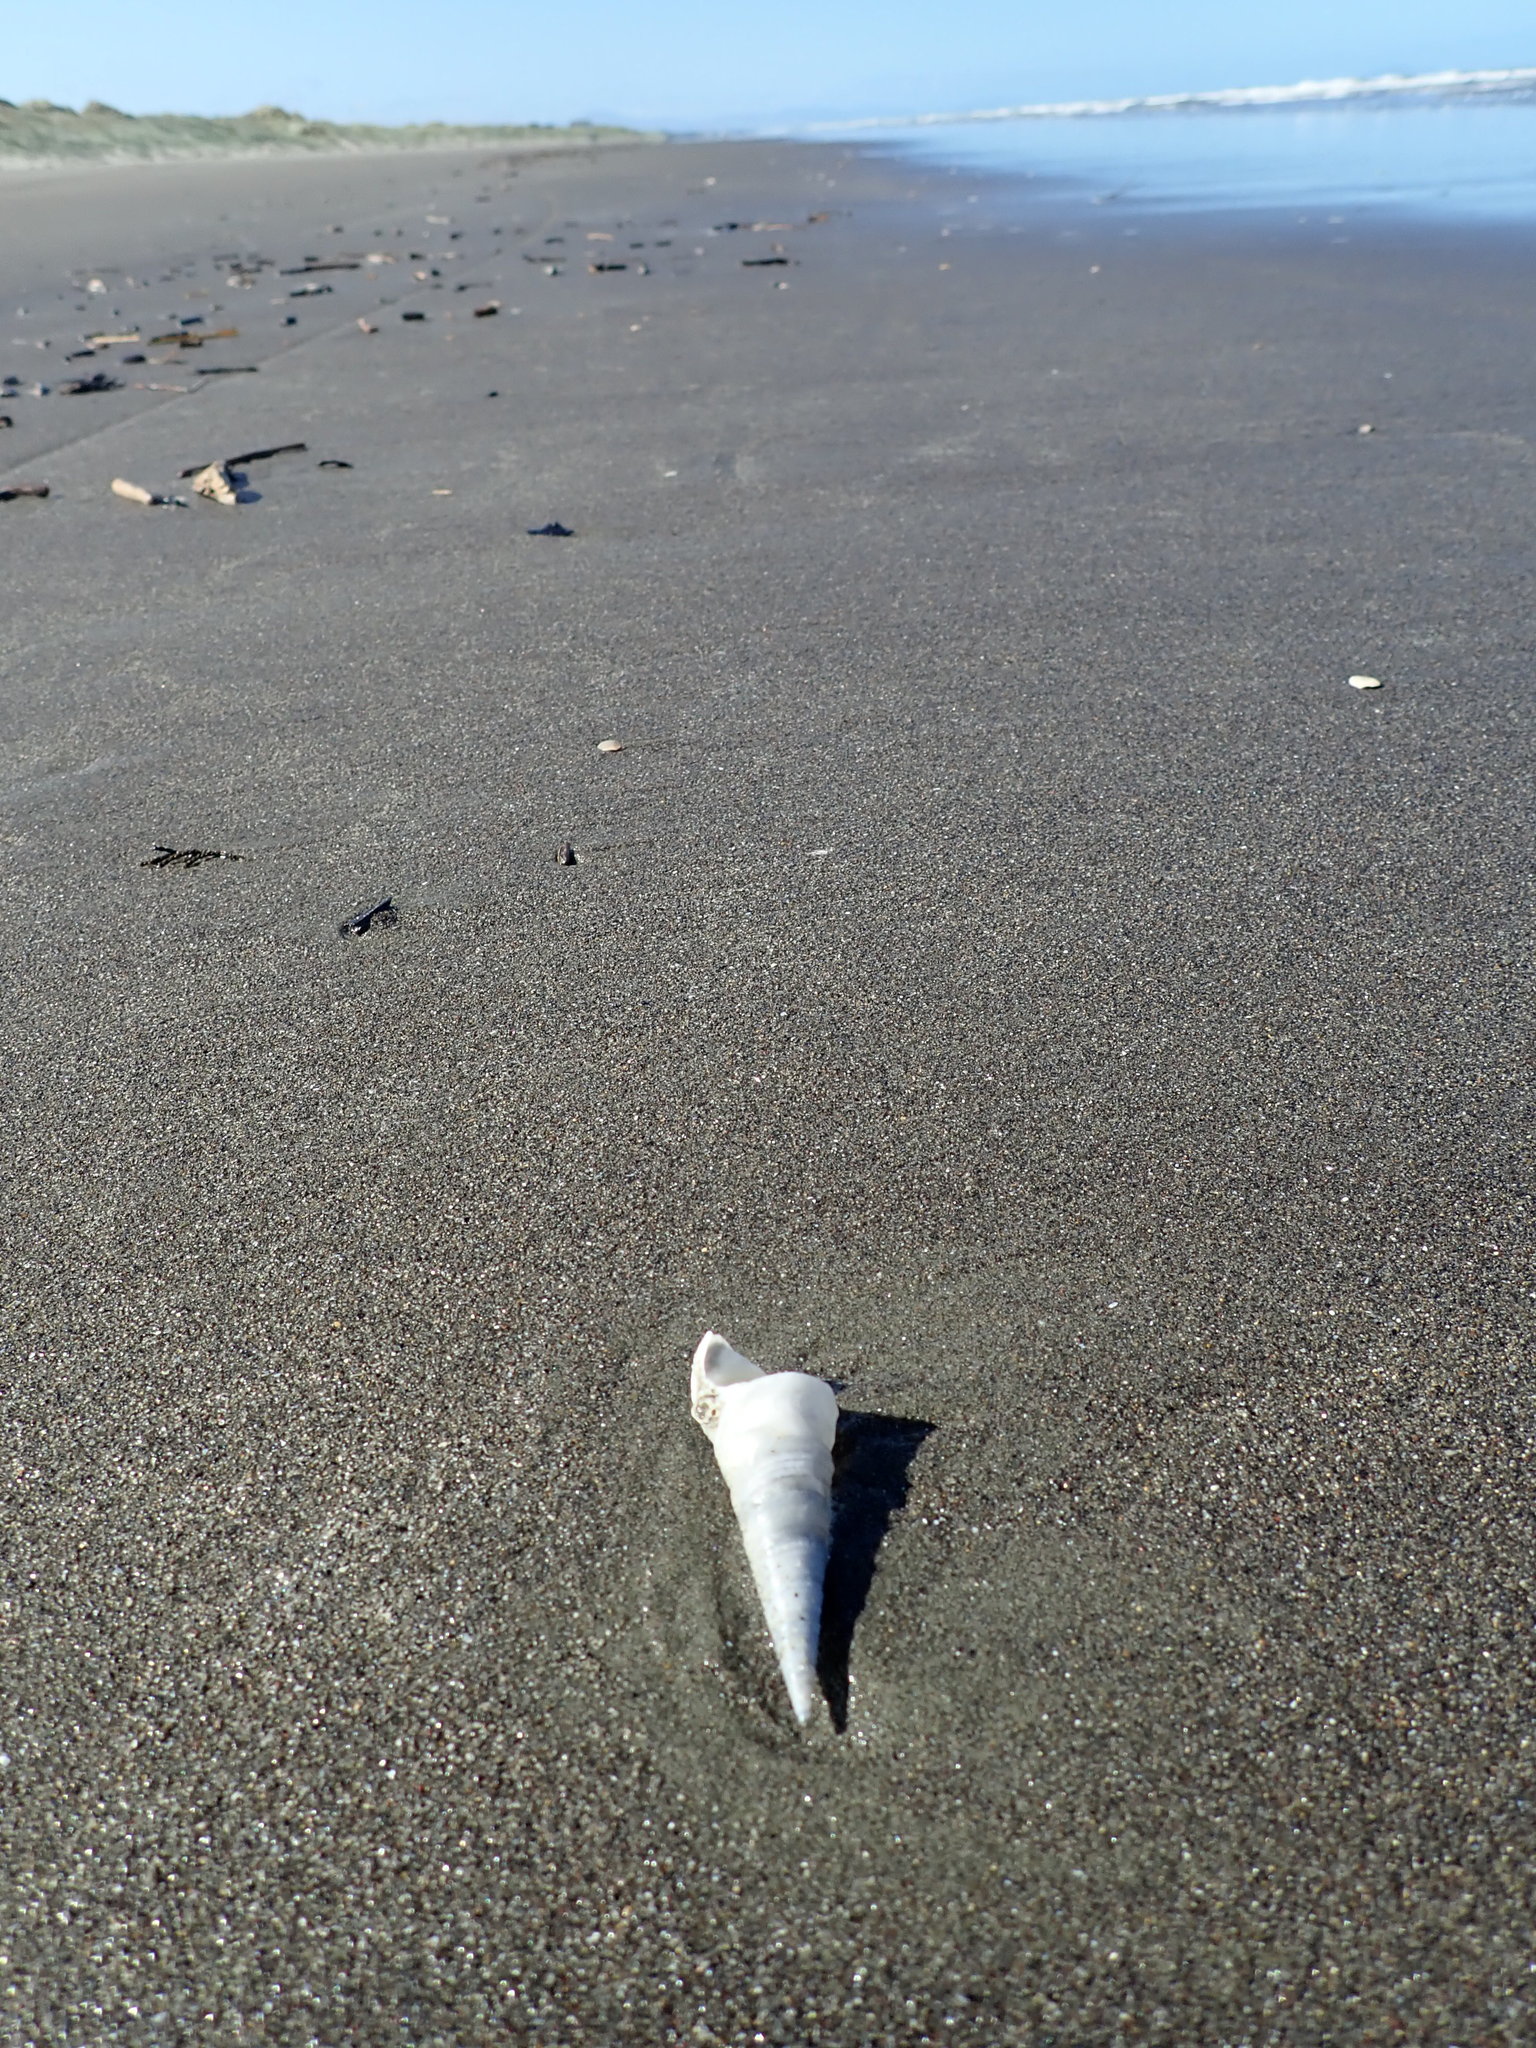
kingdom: Animalia
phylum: Mollusca
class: Gastropoda
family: Turritellidae
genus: Maoricolpus
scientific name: Maoricolpus roseus
